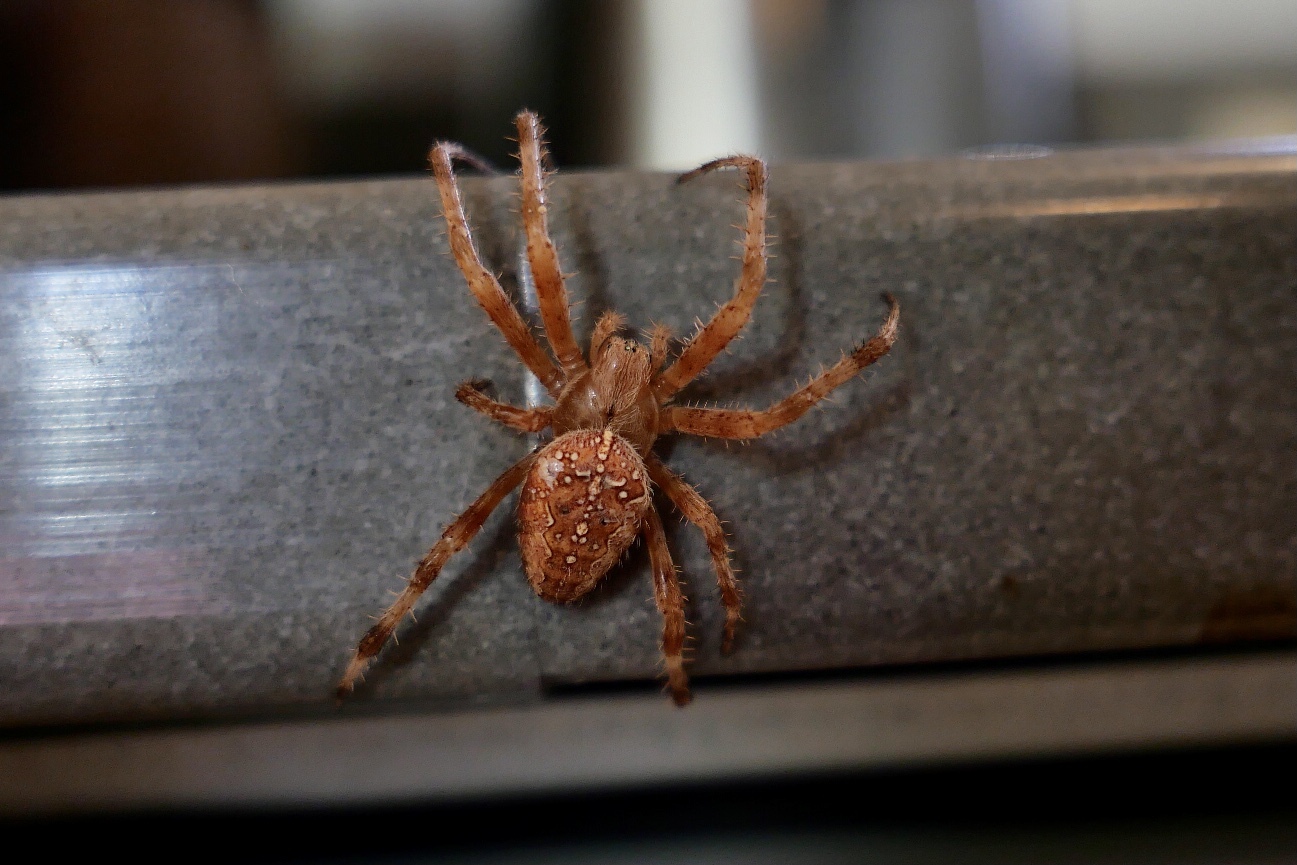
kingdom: Animalia
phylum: Arthropoda
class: Arachnida
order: Araneae
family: Araneidae
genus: Araneus
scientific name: Araneus diadematus
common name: Cross orbweaver
